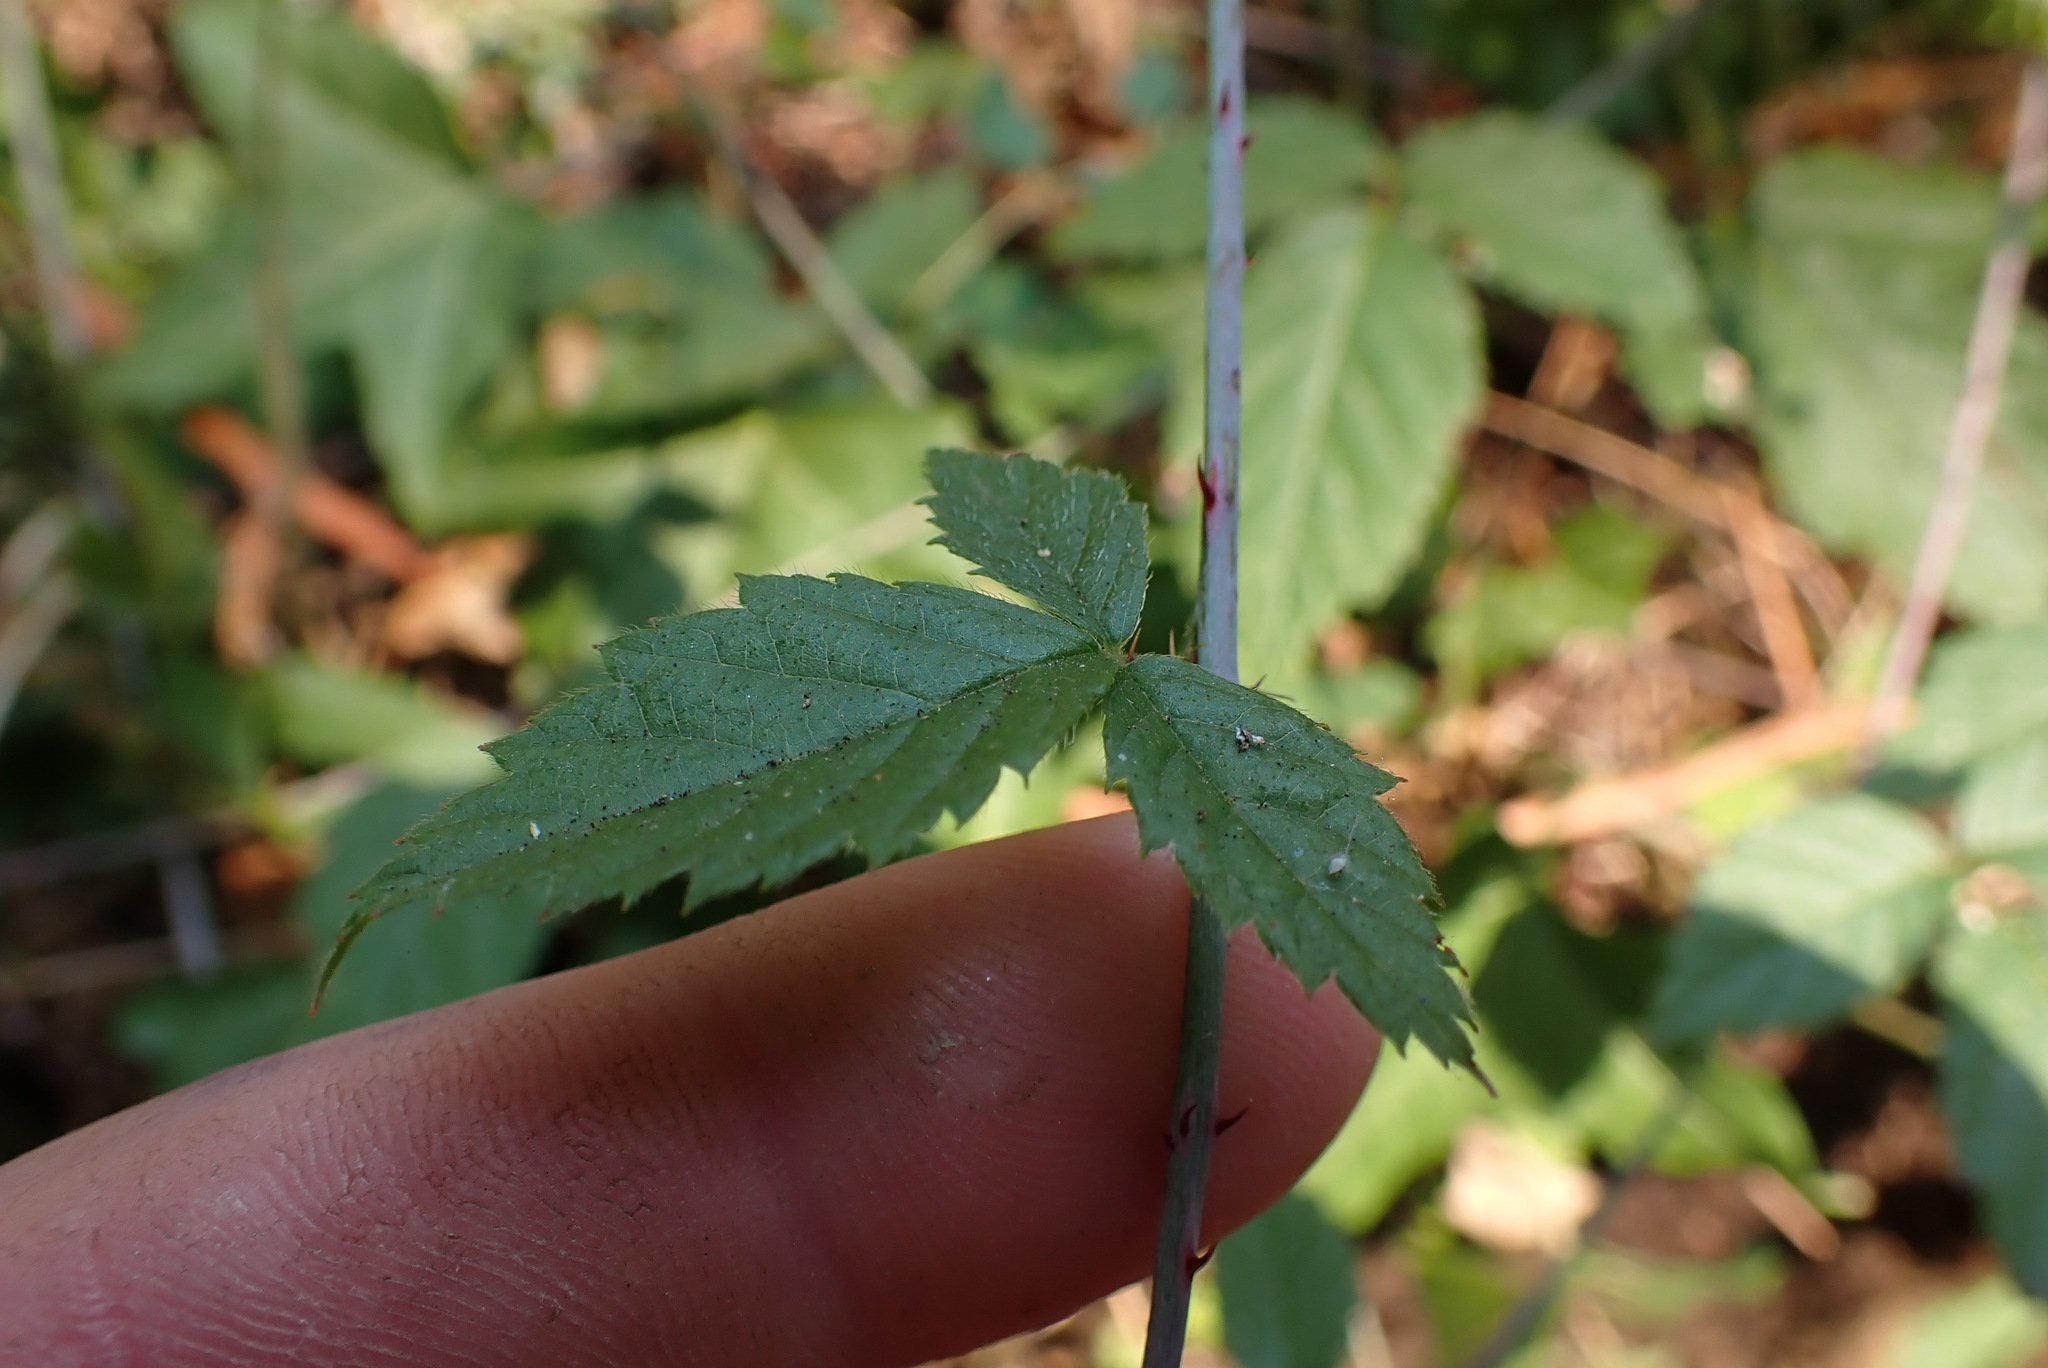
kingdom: Plantae
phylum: Tracheophyta
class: Magnoliopsida
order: Rosales
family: Rosaceae
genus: Rubus
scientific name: Rubus ursinus
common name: Pacific blackberry
